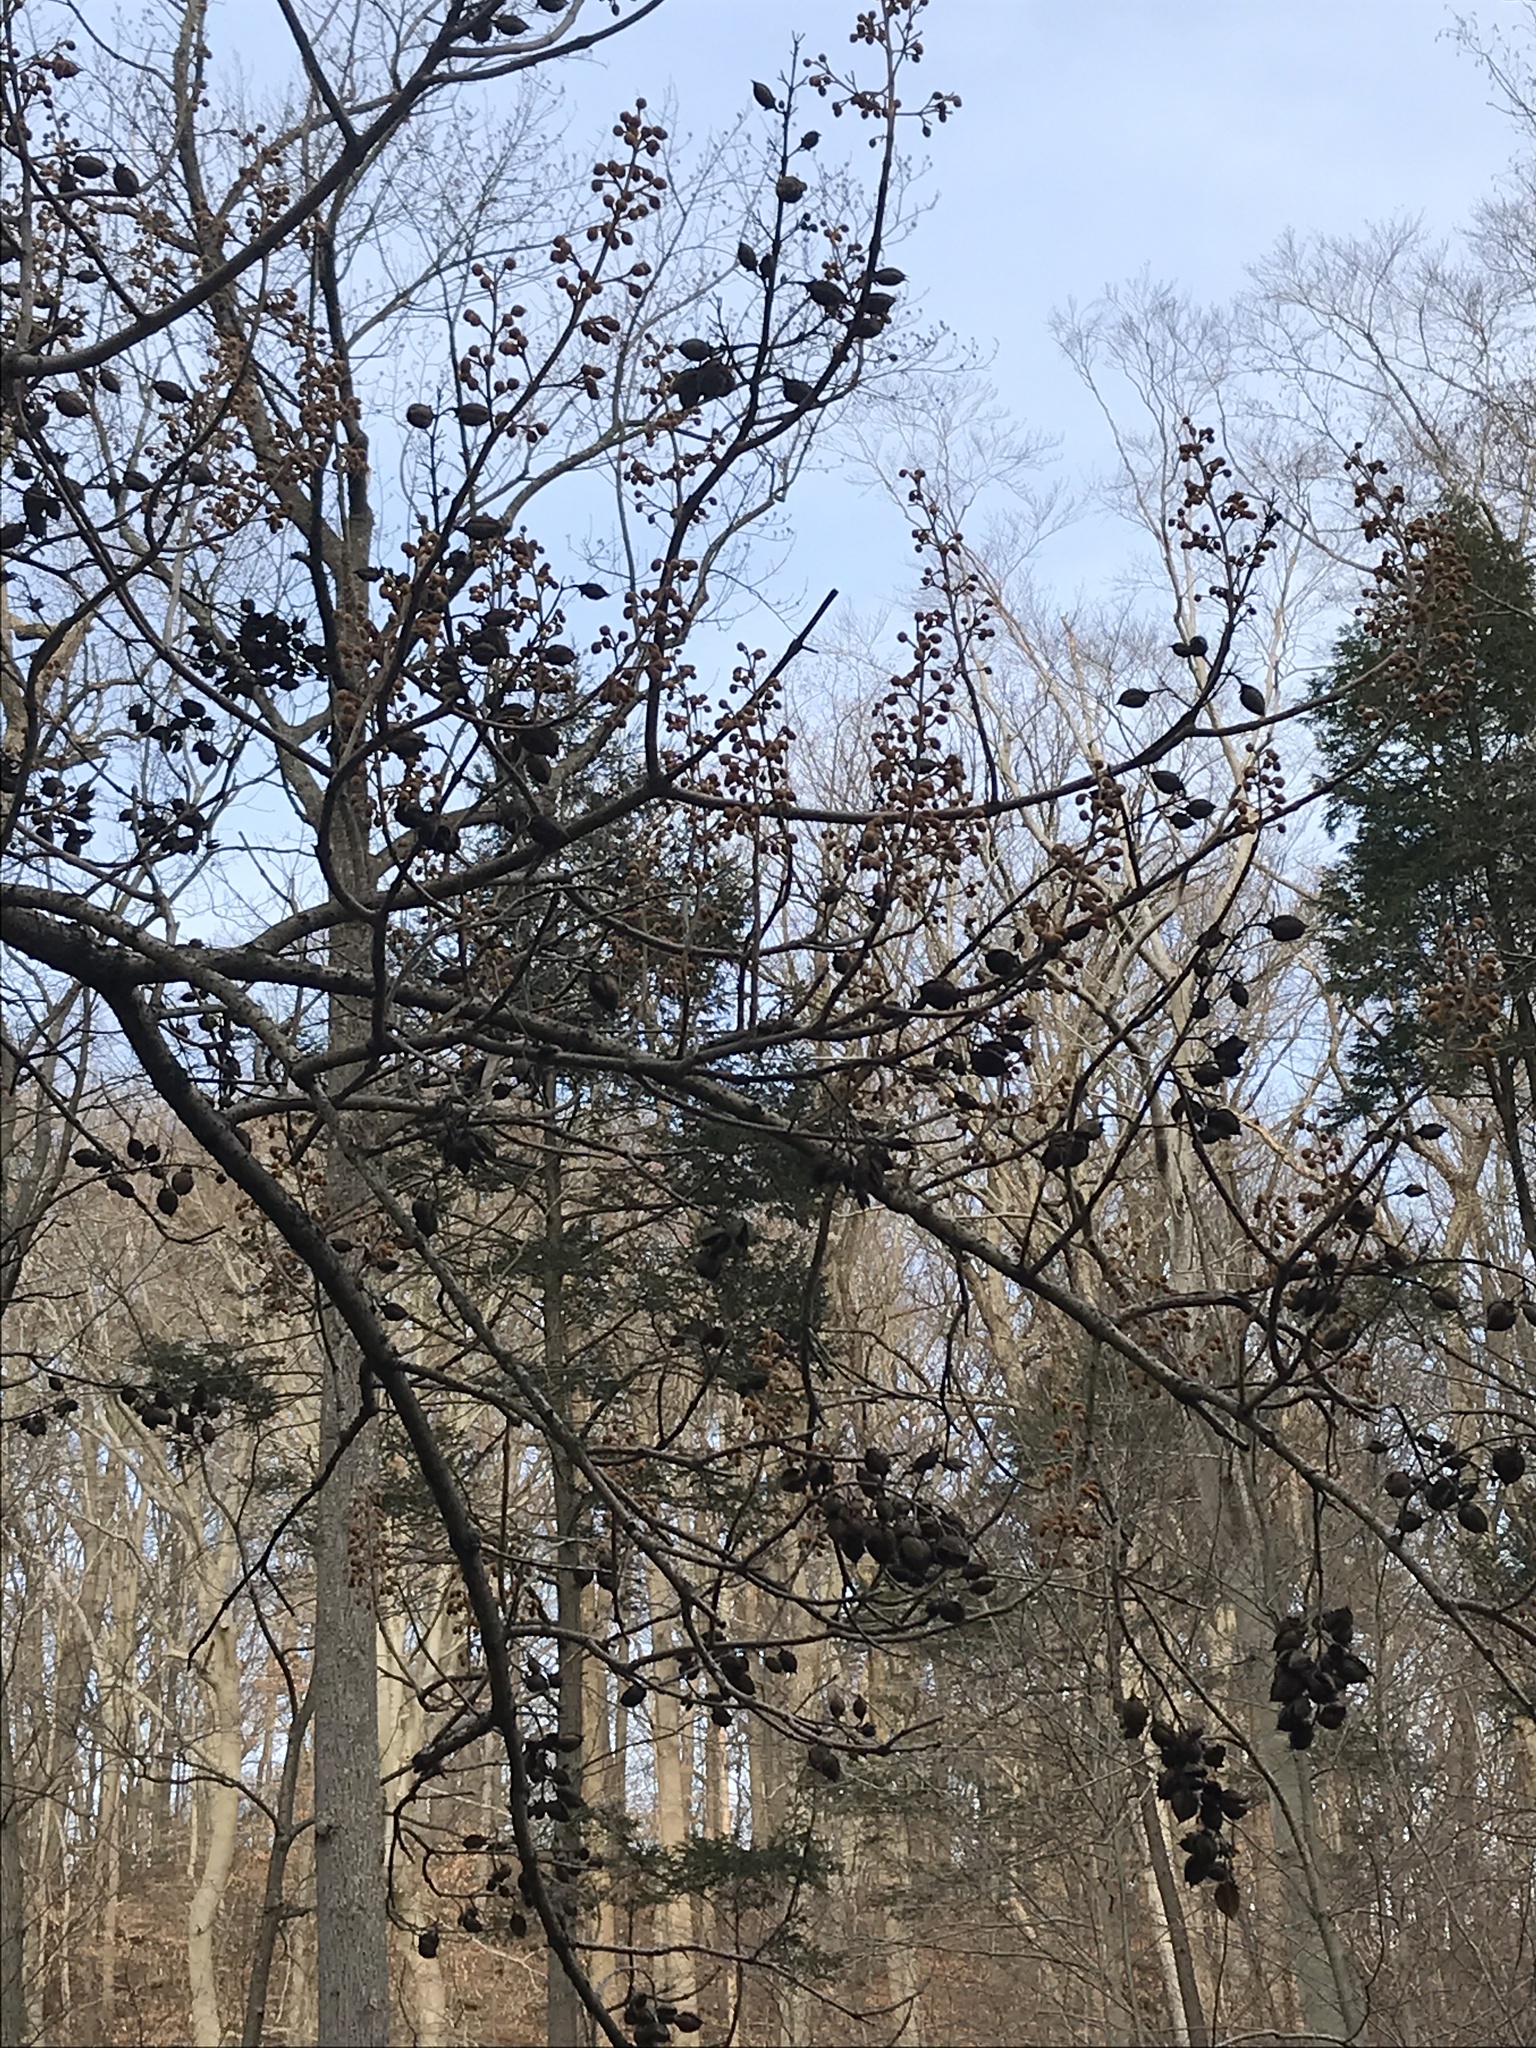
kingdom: Plantae
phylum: Tracheophyta
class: Magnoliopsida
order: Lamiales
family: Paulowniaceae
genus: Paulownia
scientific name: Paulownia tomentosa
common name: Foxglove-tree
